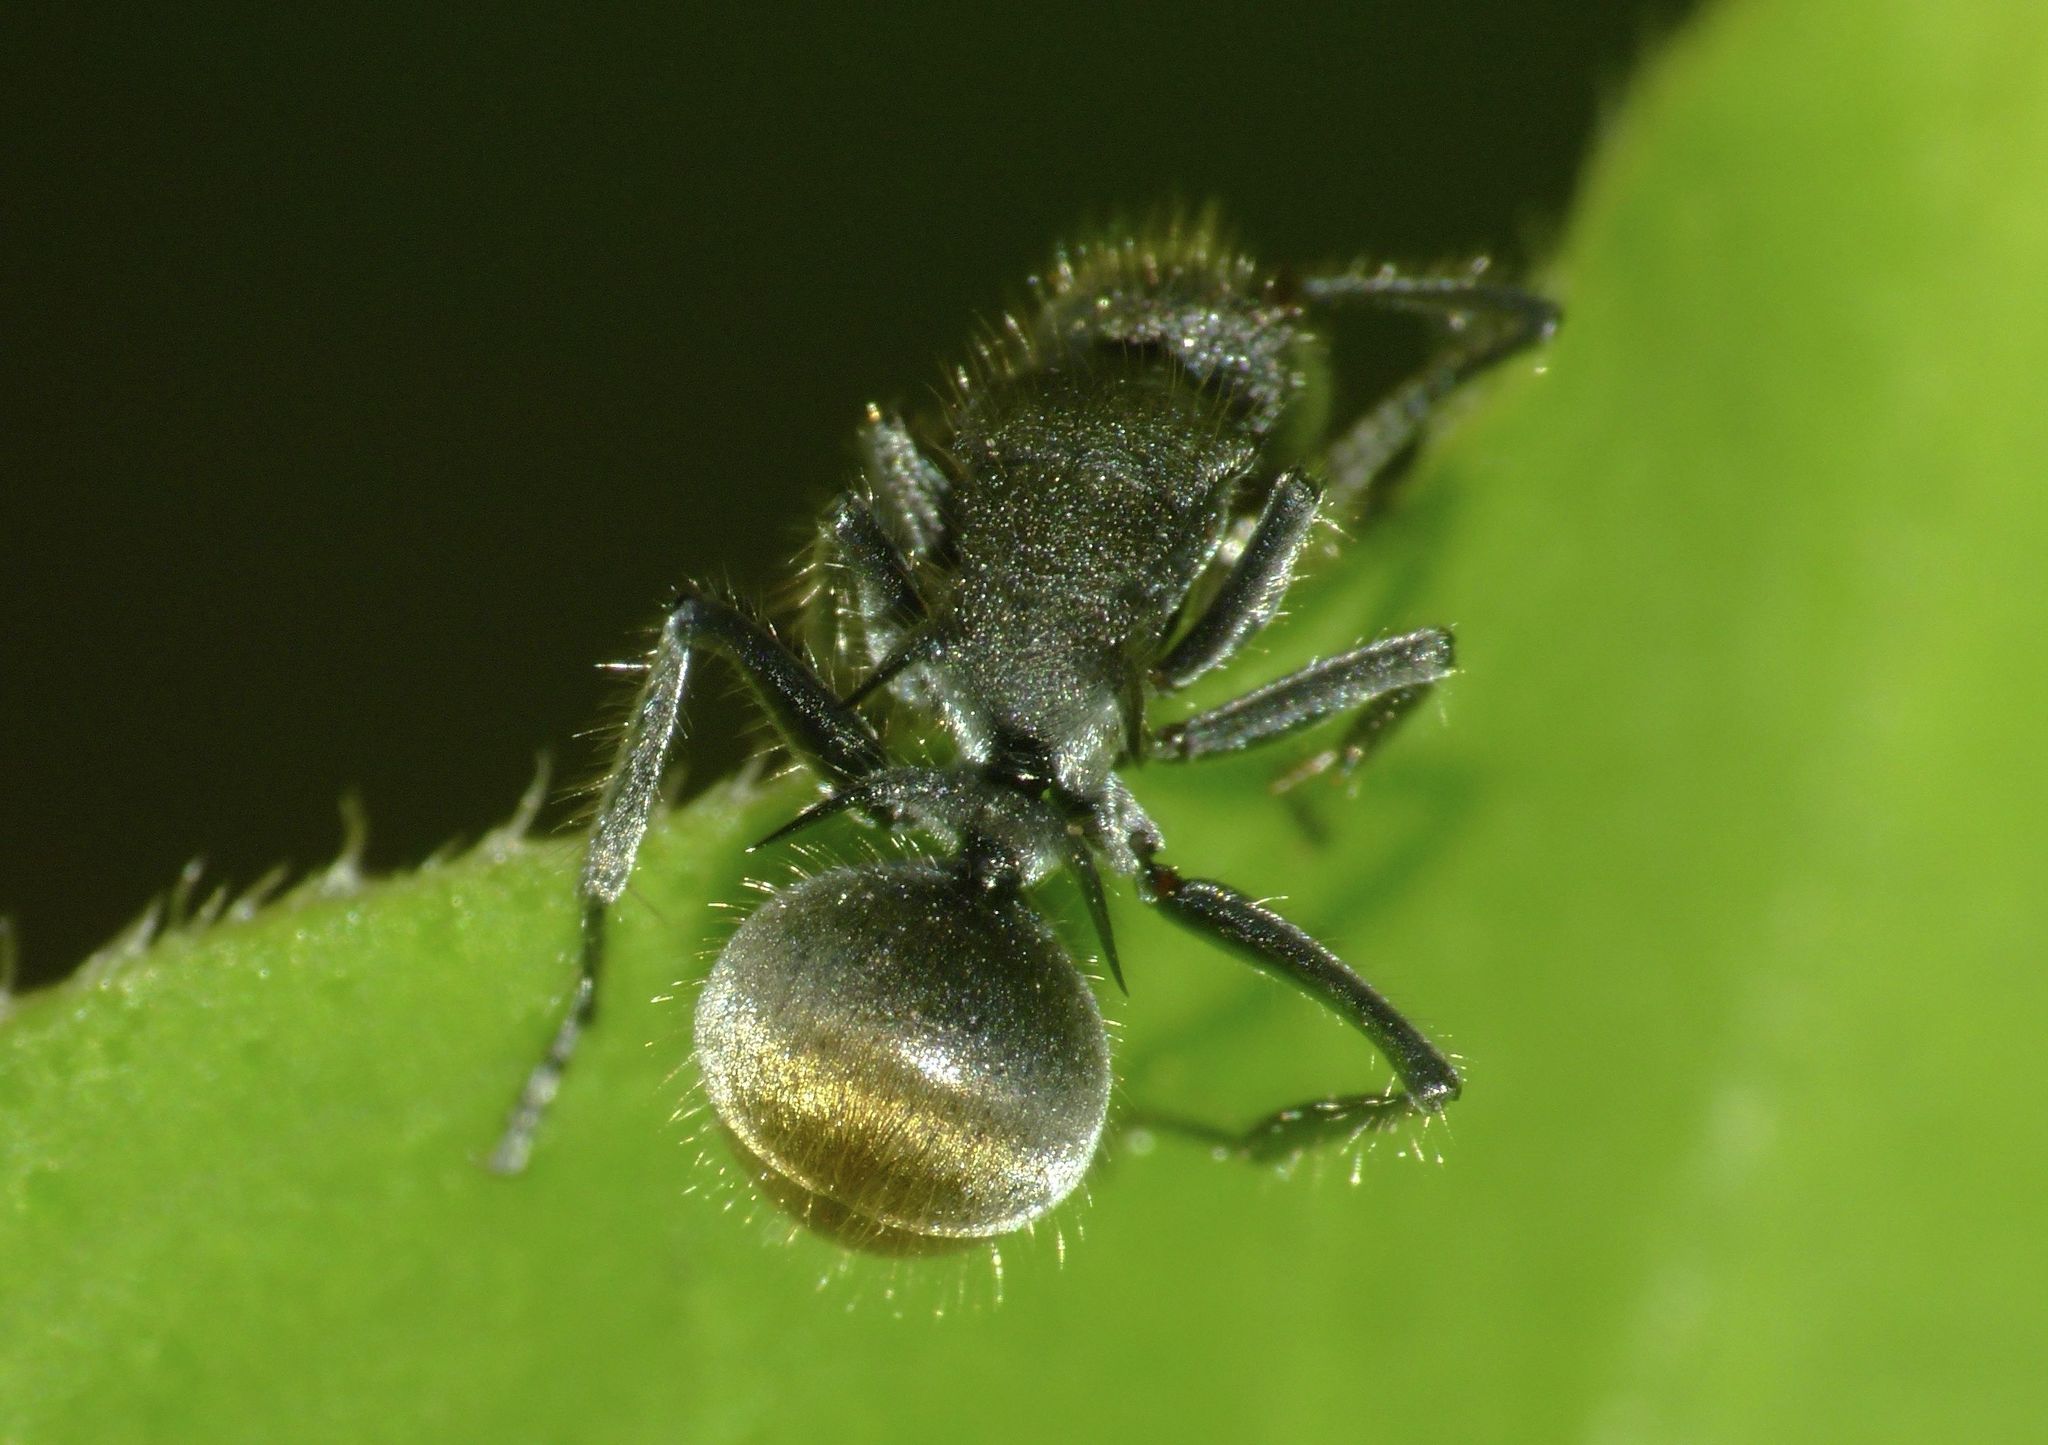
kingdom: Animalia
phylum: Arthropoda
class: Insecta
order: Hymenoptera
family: Formicidae
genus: Polyrhachis
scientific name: Polyrhachis vermiculosa
